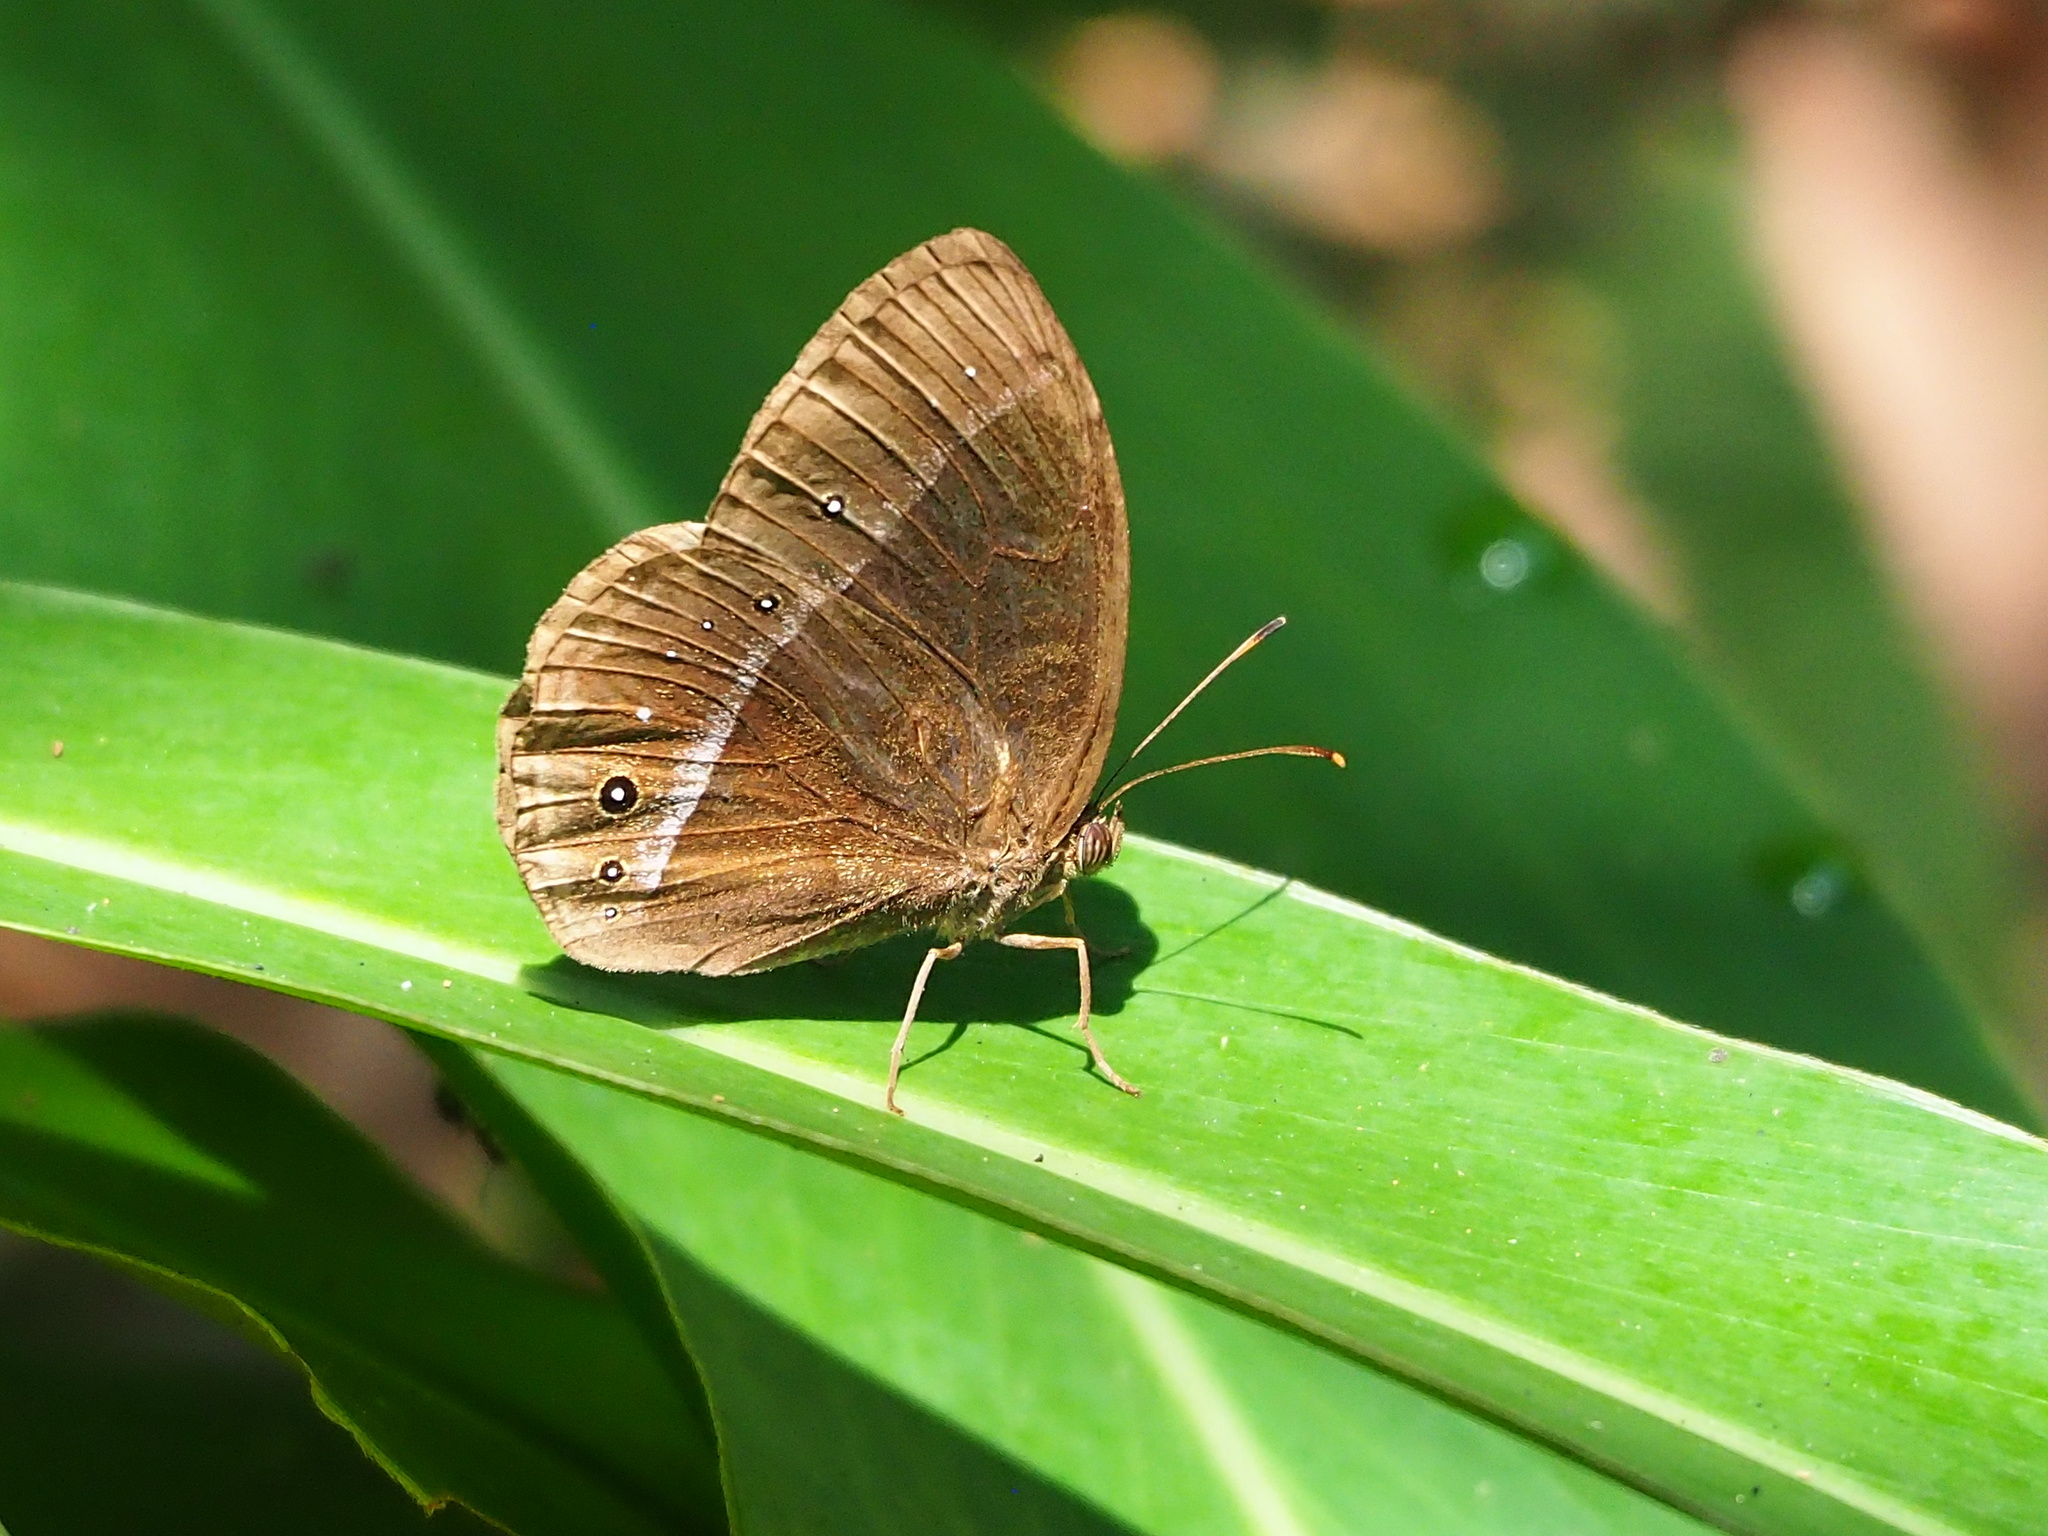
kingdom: Animalia
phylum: Arthropoda
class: Insecta
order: Lepidoptera
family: Nymphalidae
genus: Mycalesis
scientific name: Mycalesis francisca
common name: Lilacine bushbrown
